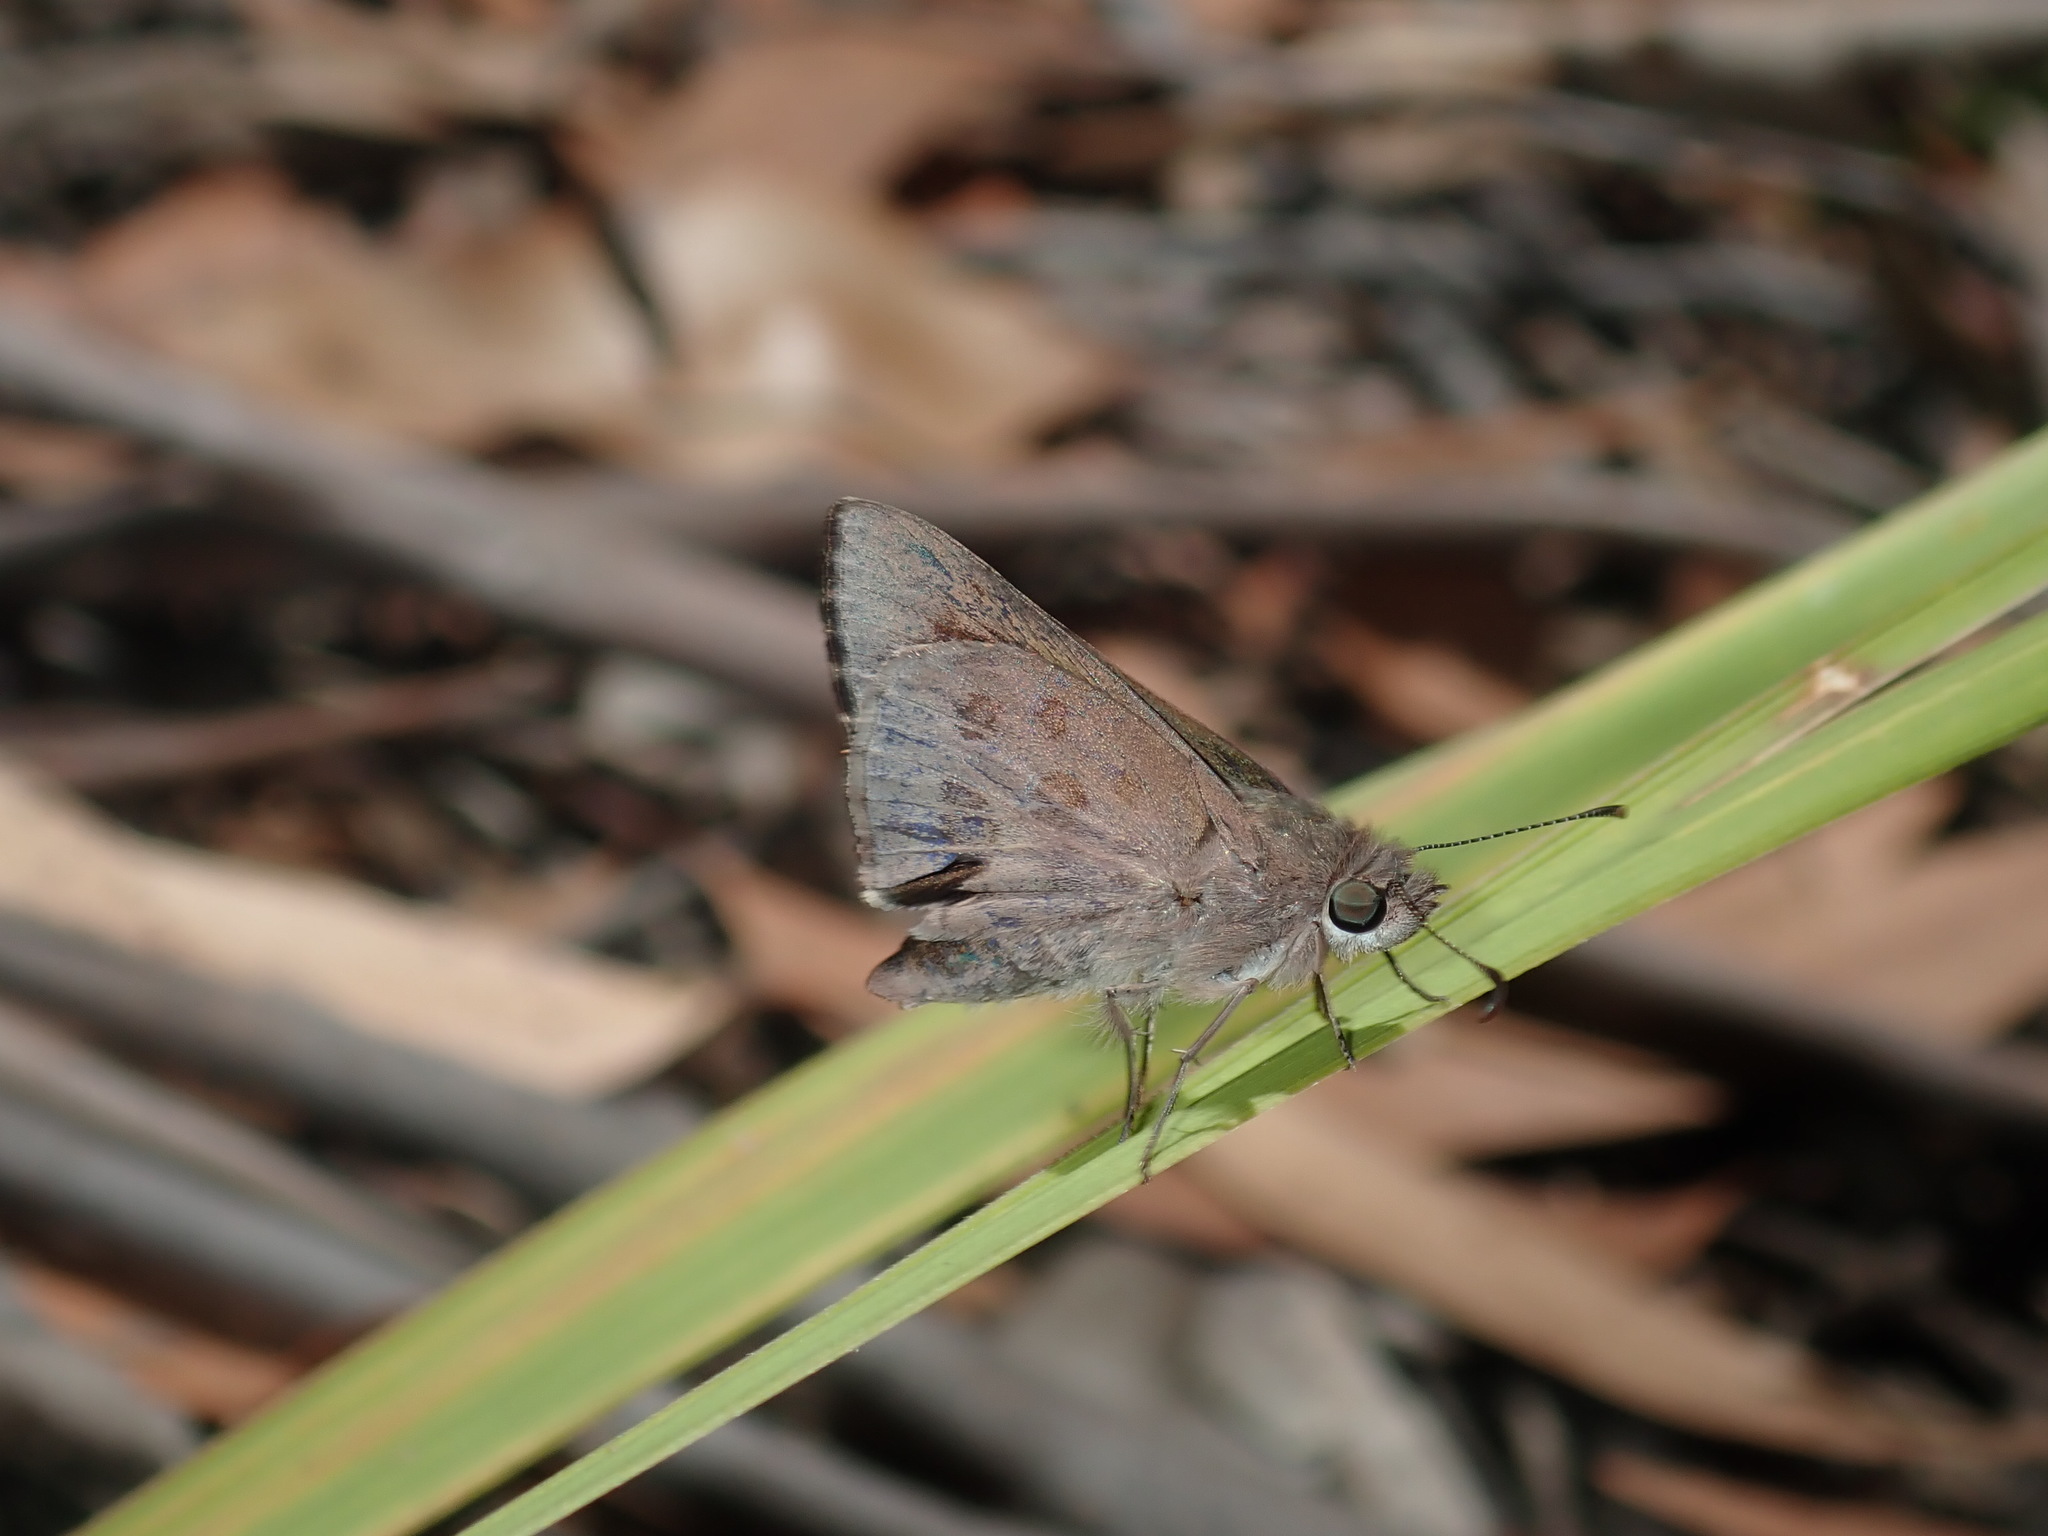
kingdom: Animalia
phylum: Arthropoda
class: Insecta
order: Lepidoptera
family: Hesperiidae
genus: Mesodina
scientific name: Mesodina halyzia
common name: Eastern iris-skipper
